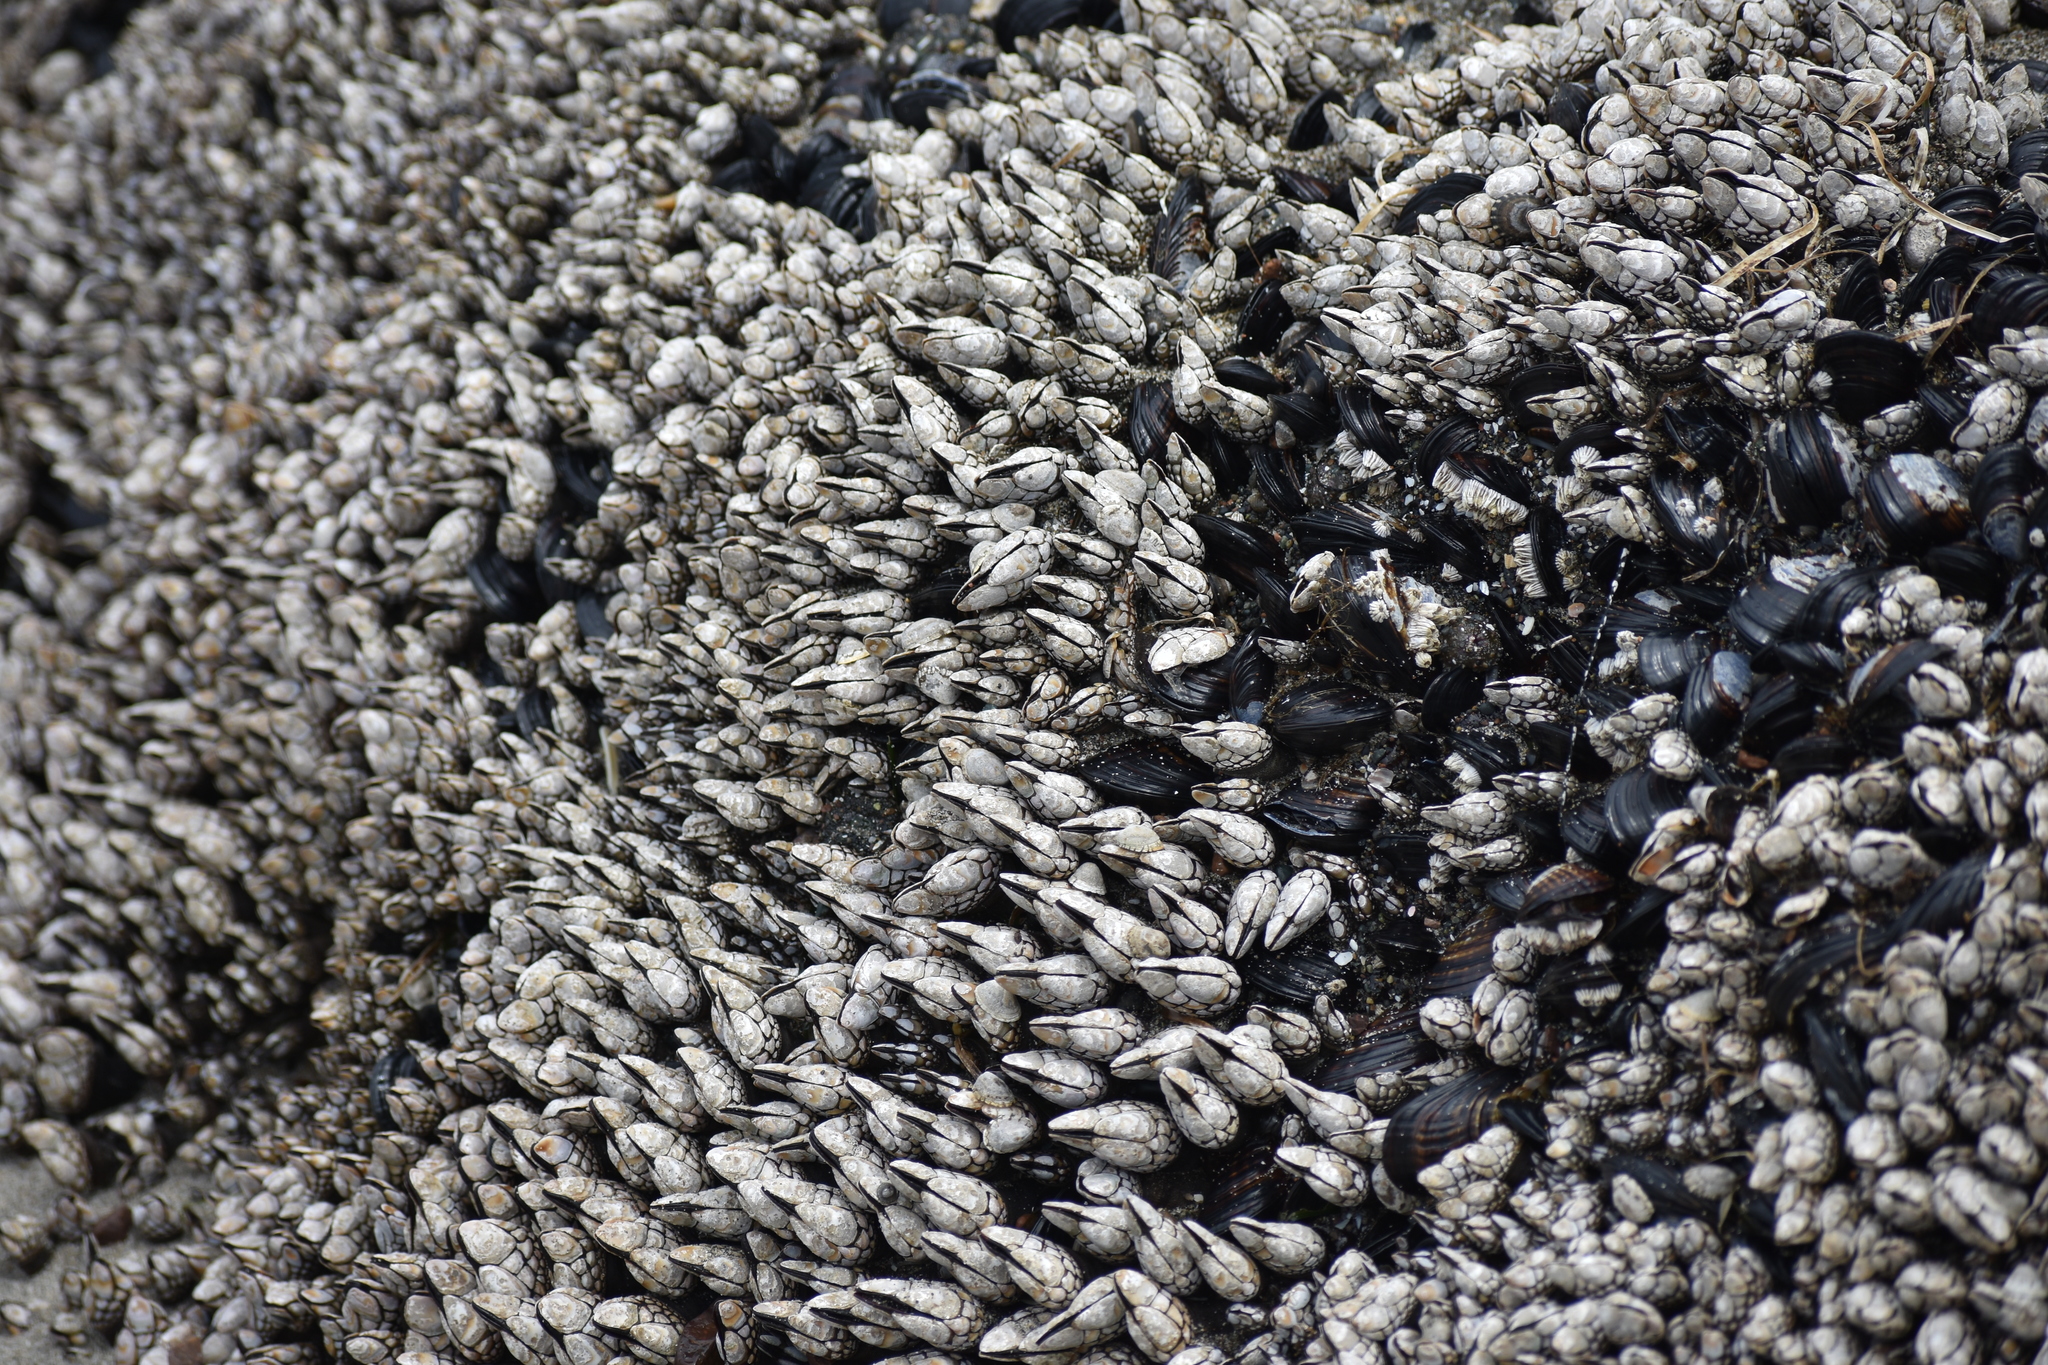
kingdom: Animalia
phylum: Arthropoda
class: Maxillopoda
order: Pedunculata
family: Pollicipedidae
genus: Pollicipes
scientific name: Pollicipes polymerus
